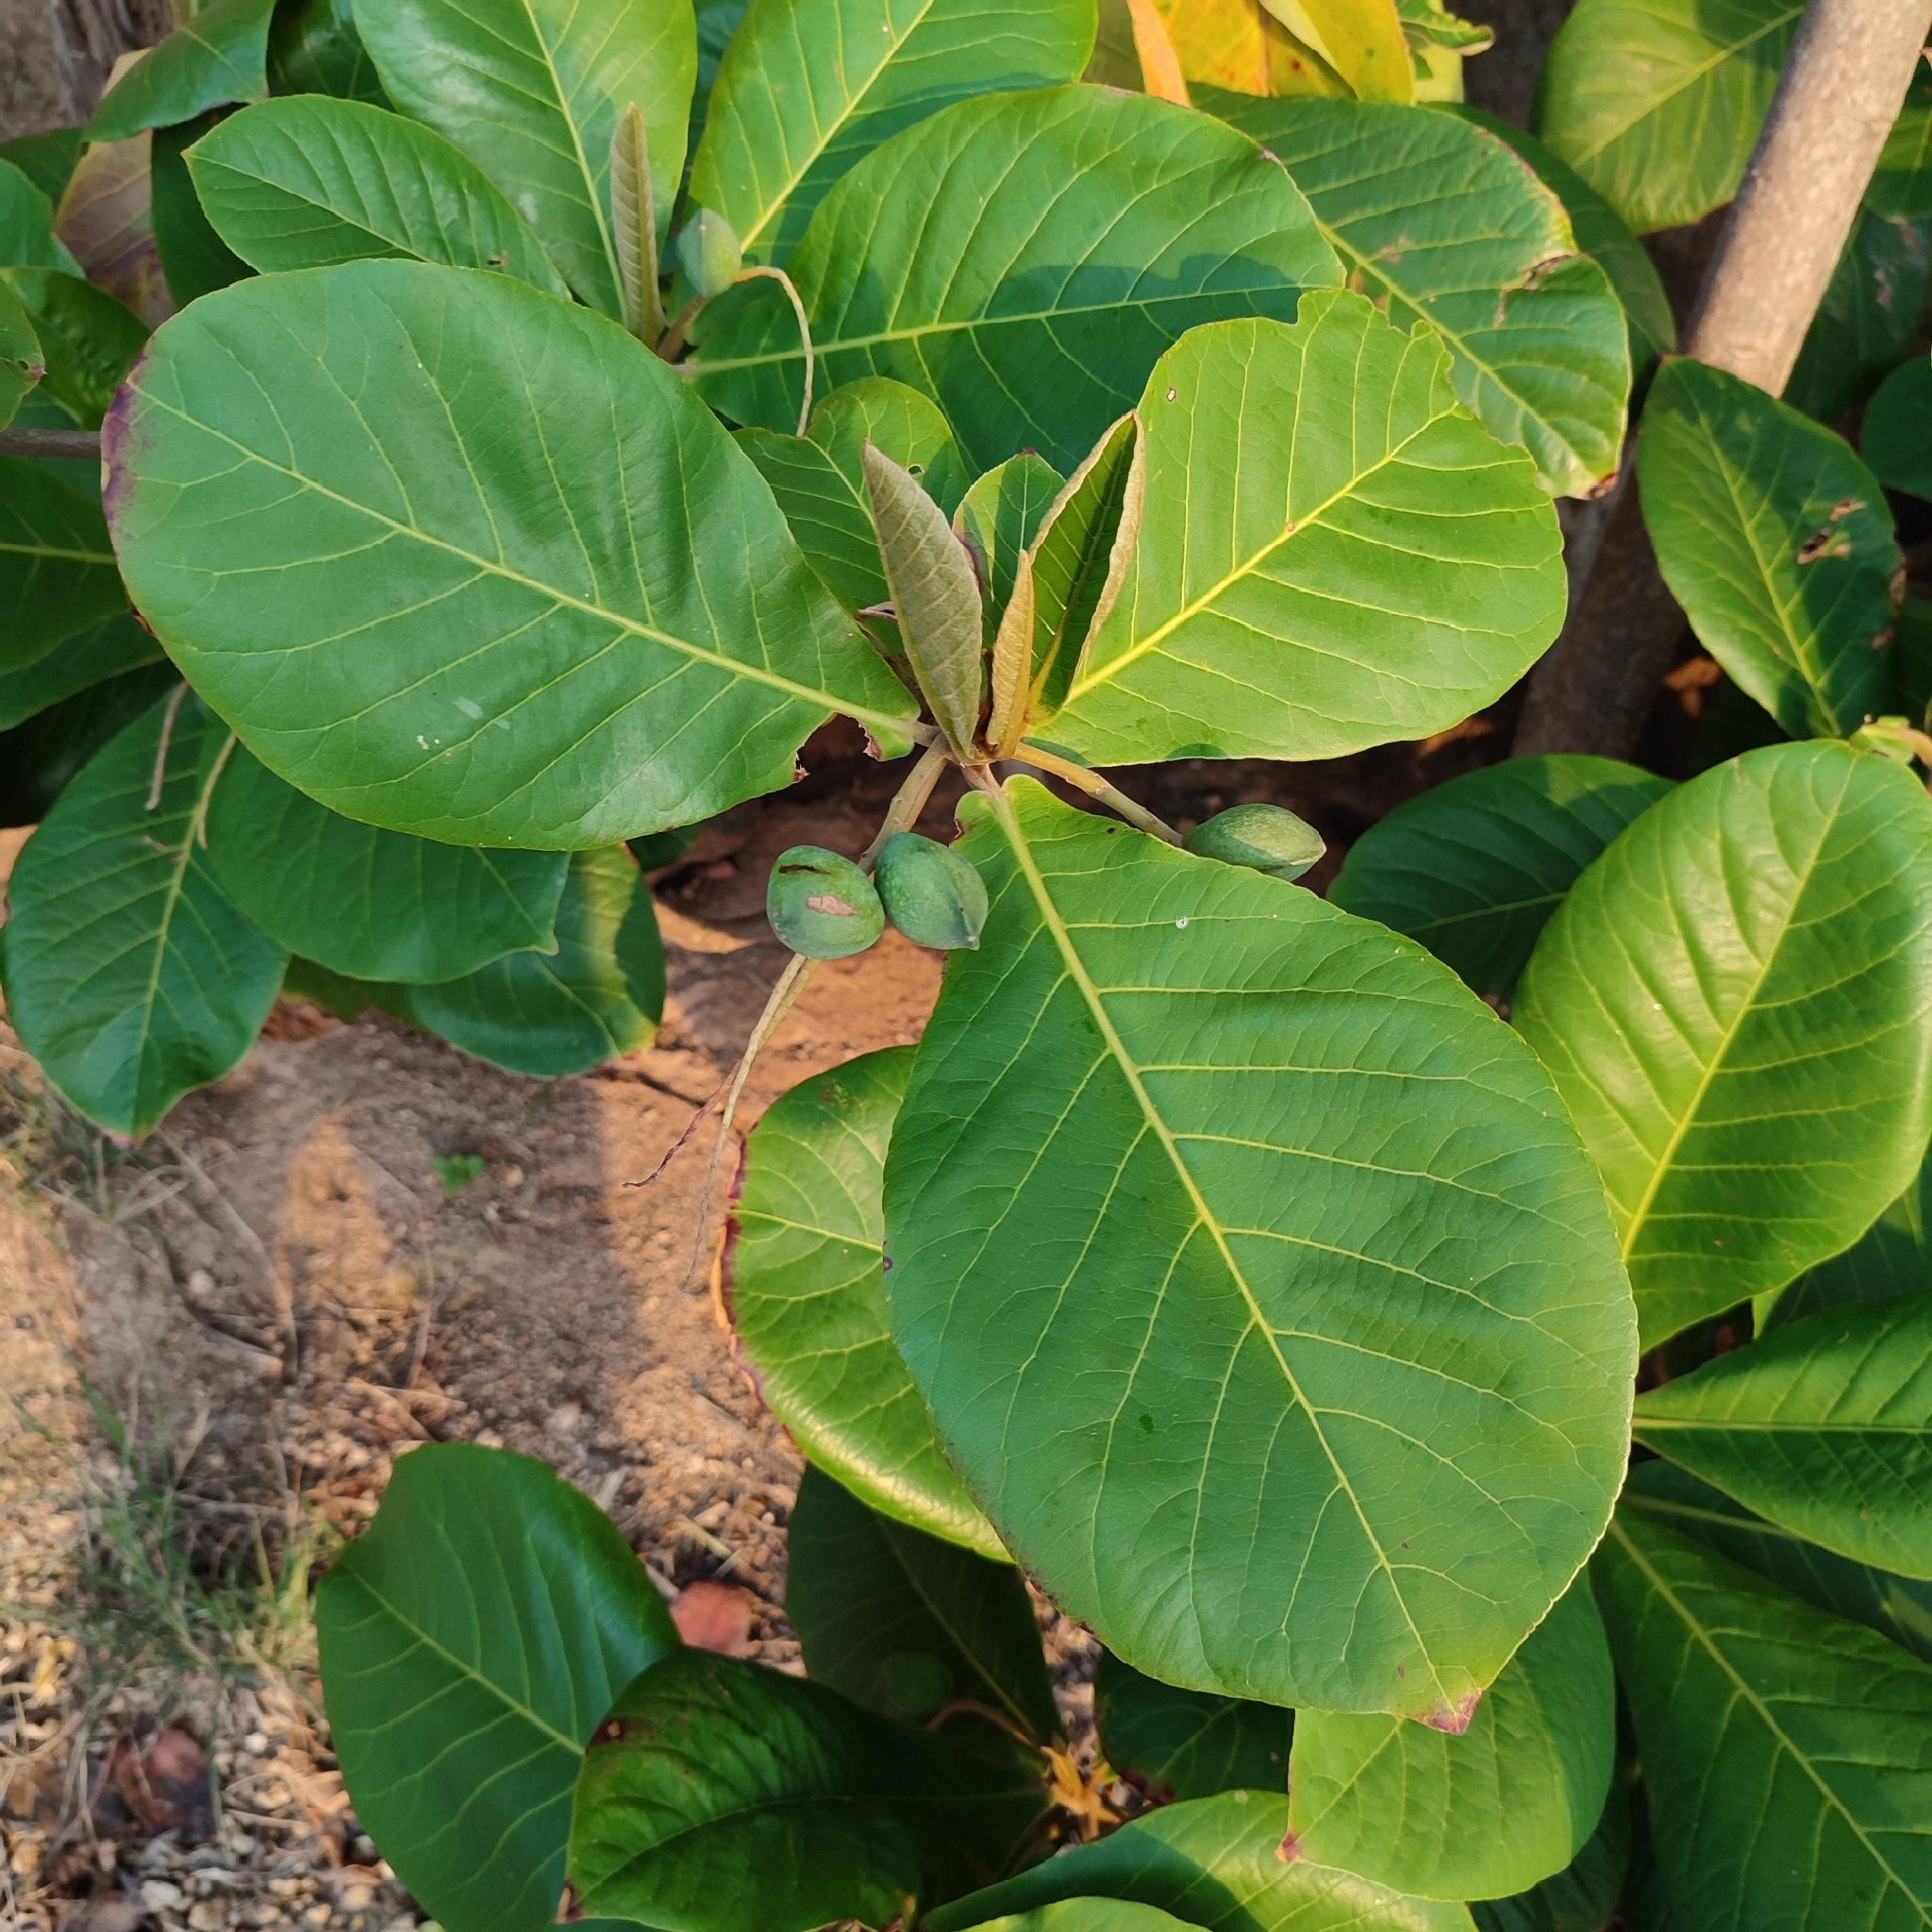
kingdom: Plantae
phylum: Tracheophyta
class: Magnoliopsida
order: Myrtales
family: Combretaceae
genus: Terminalia
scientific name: Terminalia catappa
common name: Tropical almond
